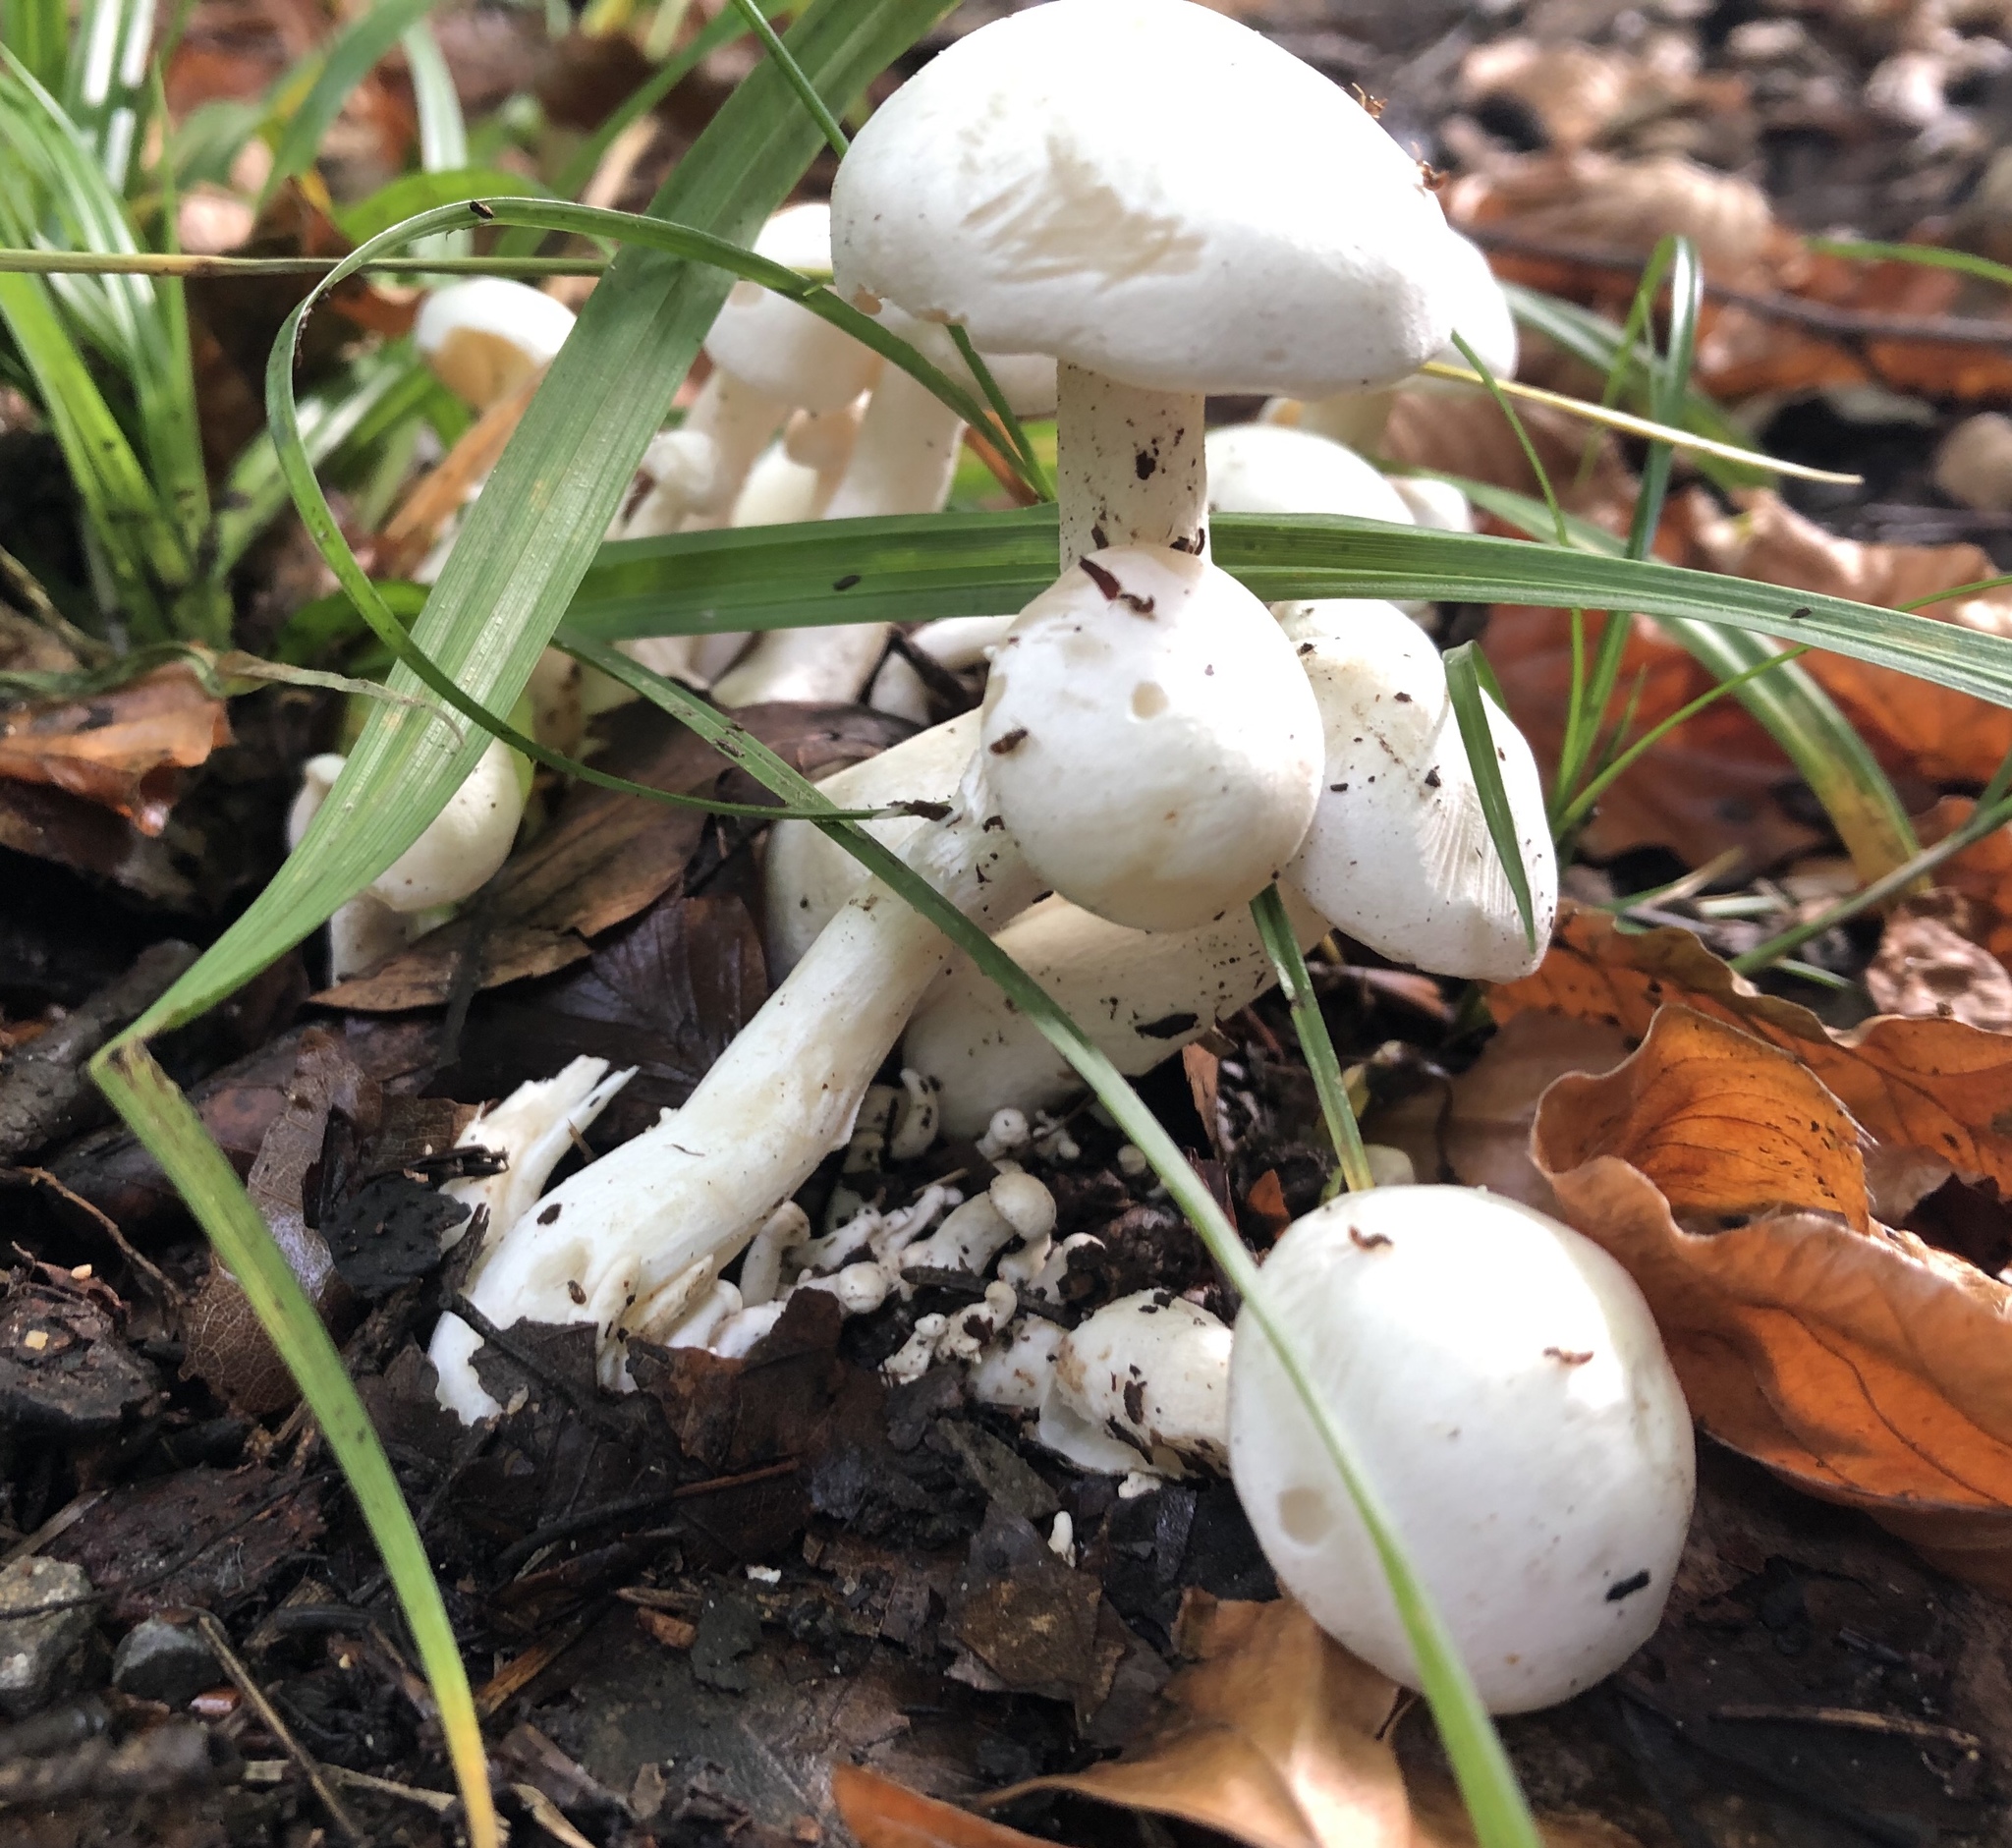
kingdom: Fungi
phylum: Basidiomycota
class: Agaricomycetes
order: Agaricales
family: Tricholomataceae
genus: Leucocybe
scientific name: Leucocybe connata
